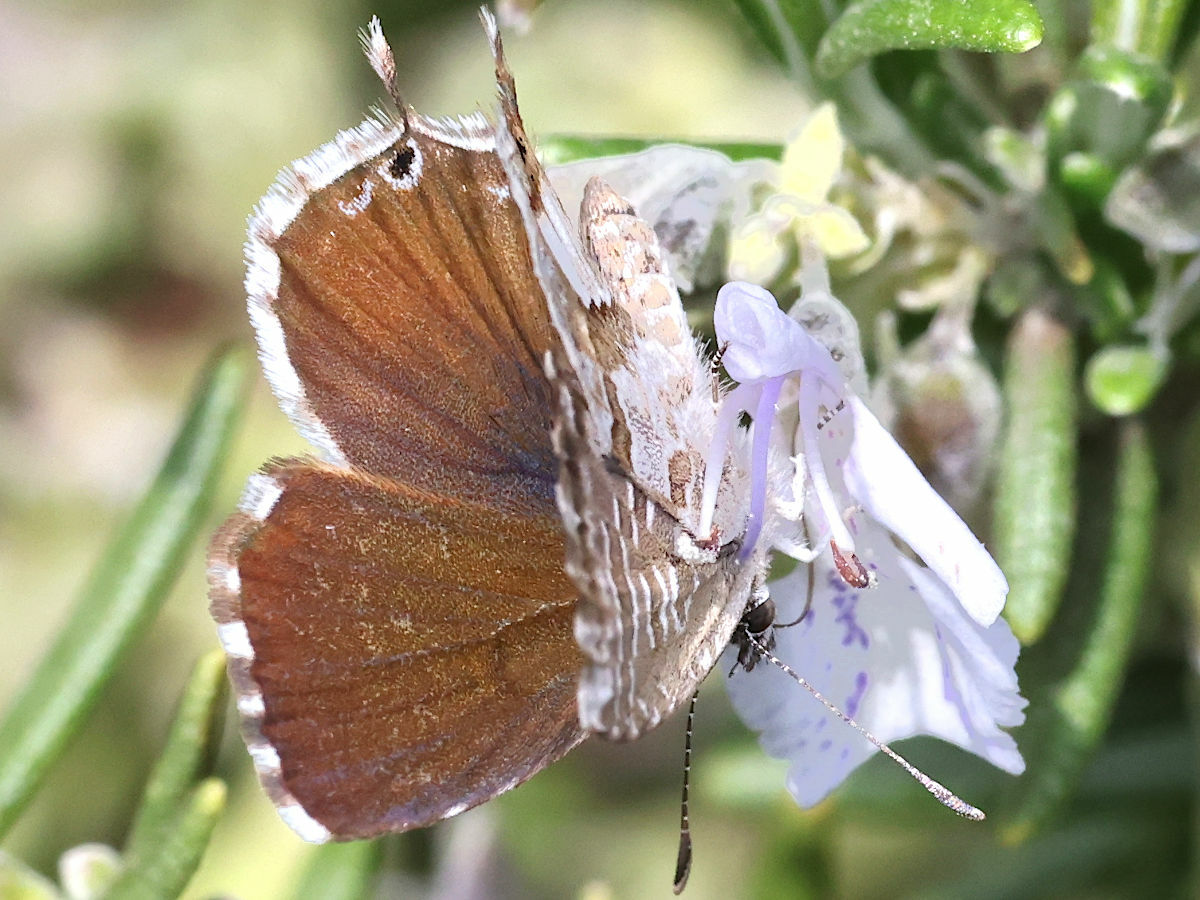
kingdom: Animalia
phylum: Arthropoda
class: Insecta
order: Lepidoptera
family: Lycaenidae
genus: Cacyreus
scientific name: Cacyreus marshalli
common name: Geranium bronze
